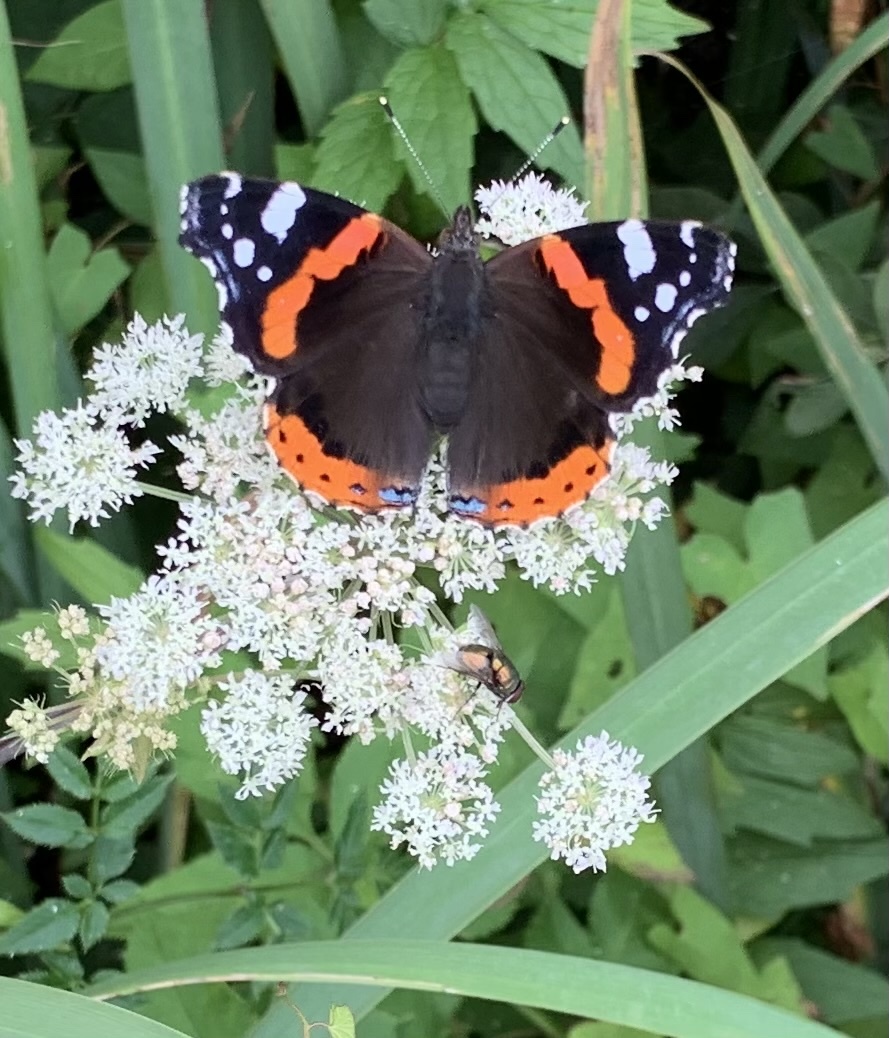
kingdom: Animalia
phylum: Arthropoda
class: Insecta
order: Lepidoptera
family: Nymphalidae
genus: Vanessa
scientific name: Vanessa atalanta
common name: Red admiral
